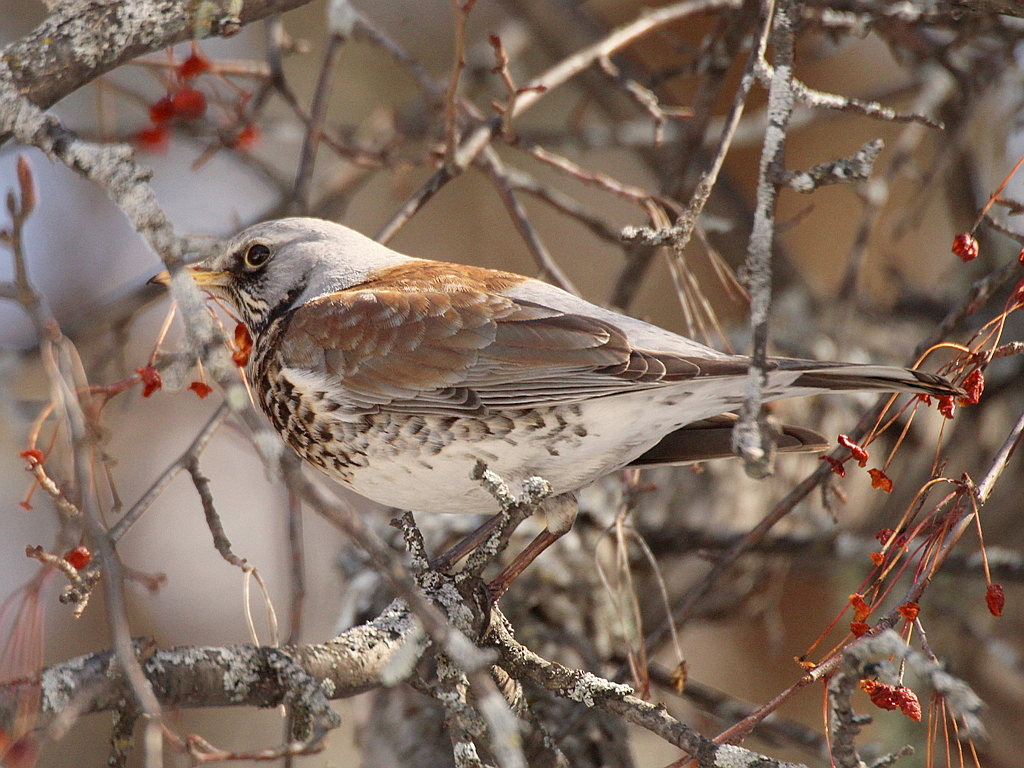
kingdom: Animalia
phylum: Chordata
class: Aves
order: Passeriformes
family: Turdidae
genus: Turdus
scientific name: Turdus pilaris
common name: Fieldfare
